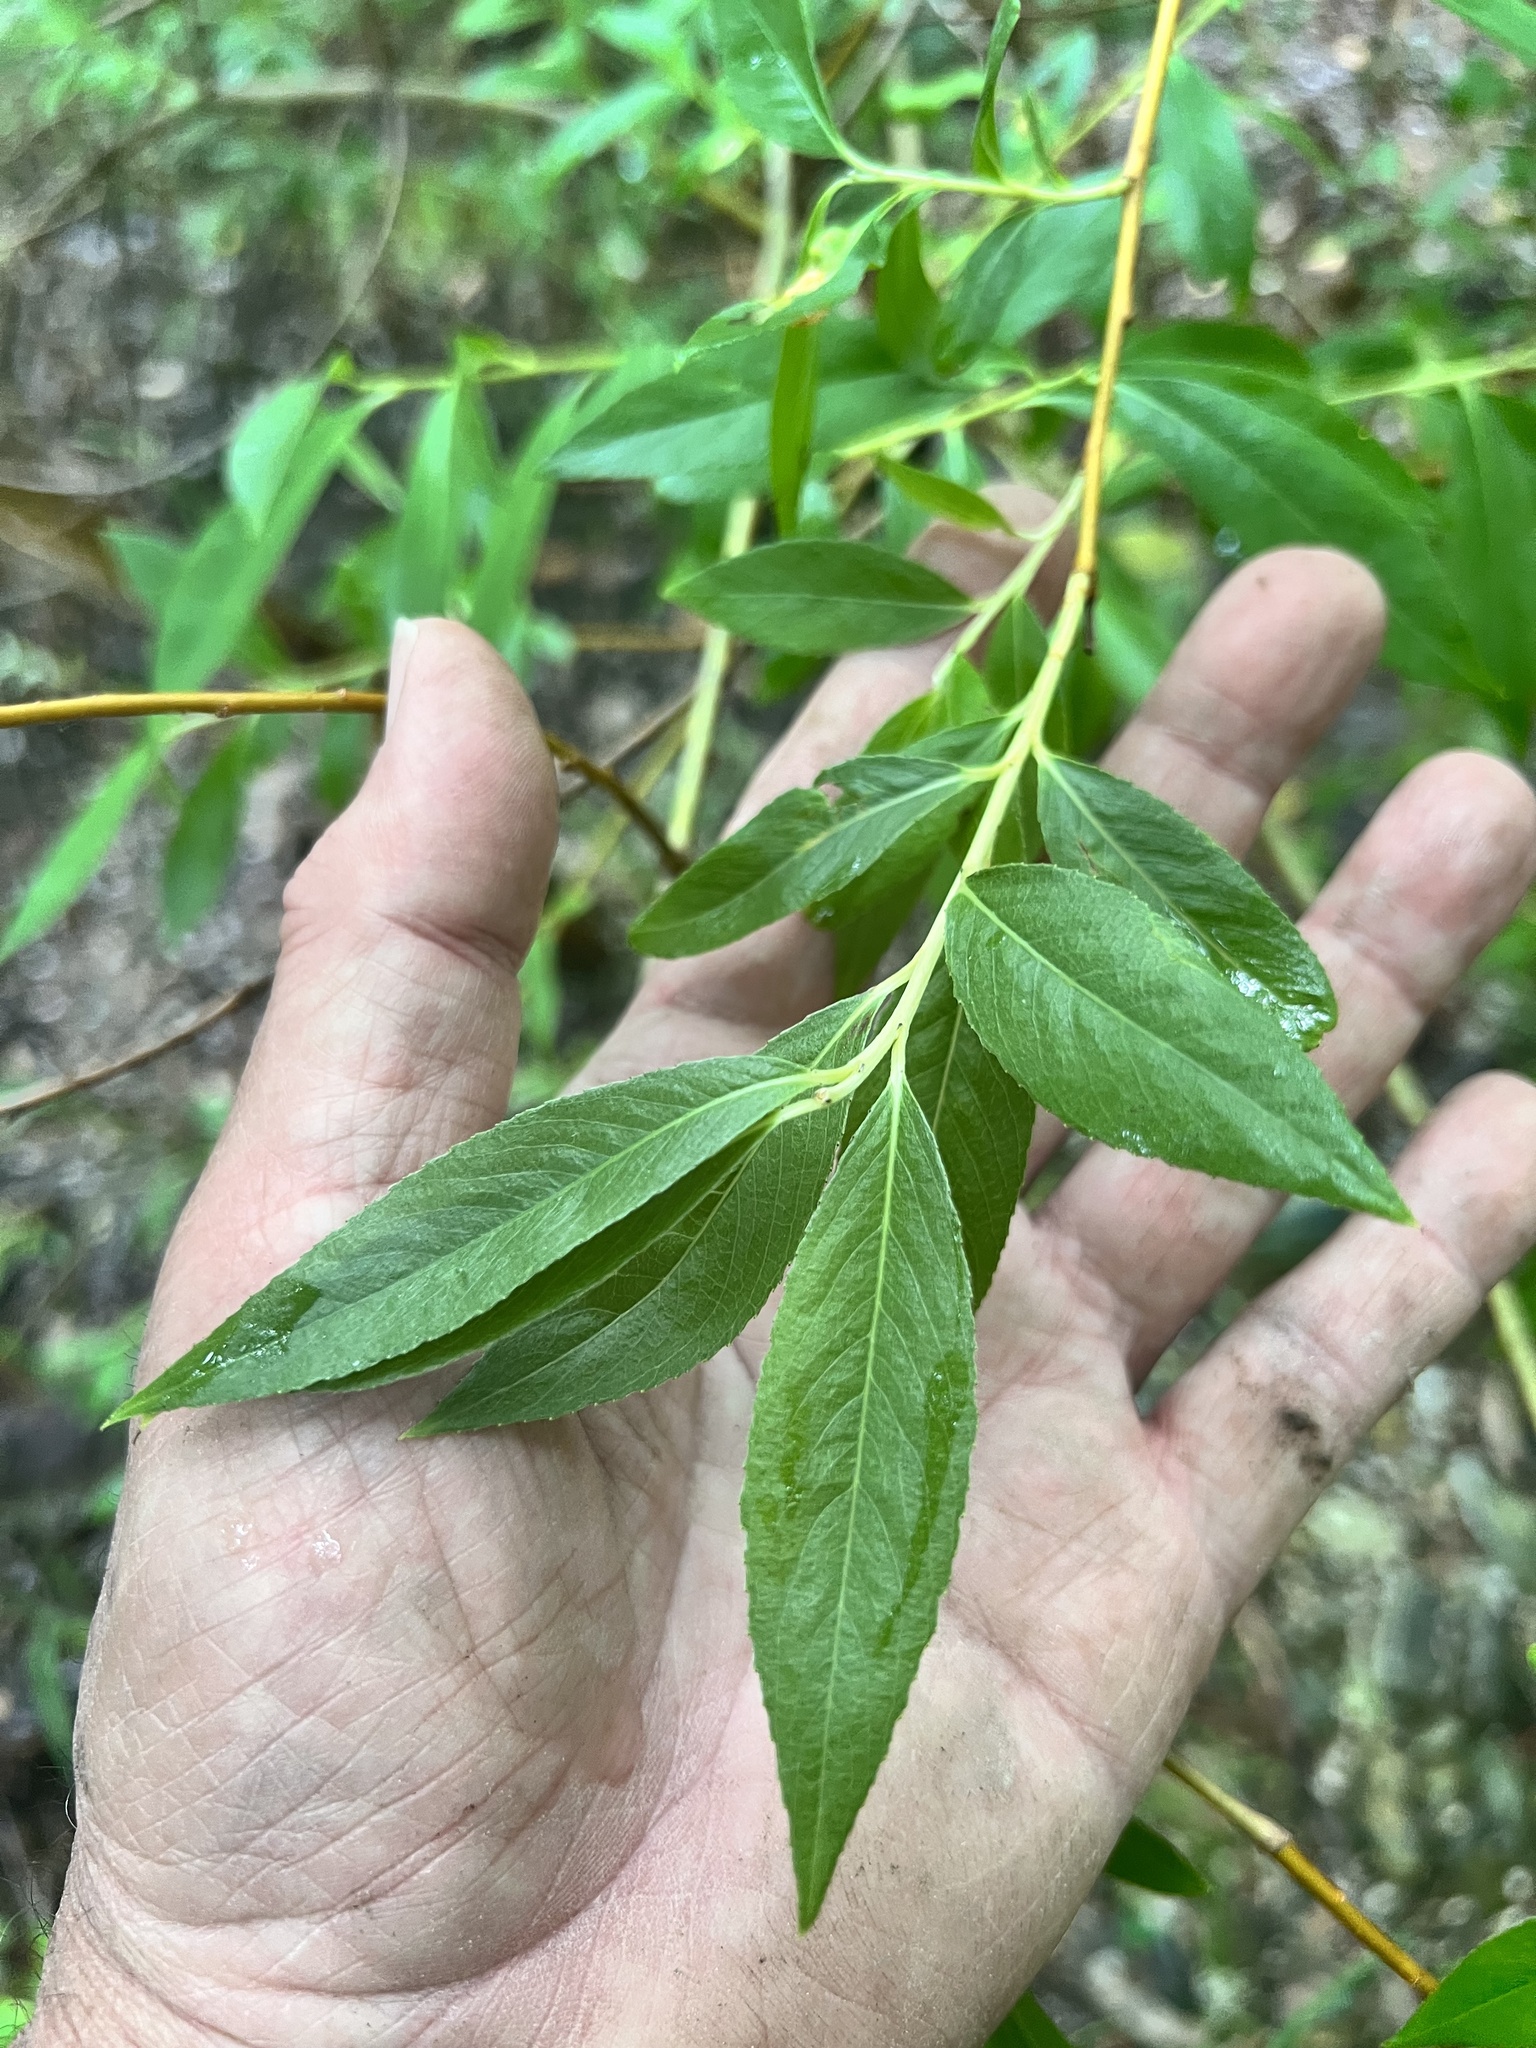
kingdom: Plantae
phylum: Tracheophyta
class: Magnoliopsida
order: Malpighiales
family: Salicaceae
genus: Salix
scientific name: Salix alba
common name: White willow
